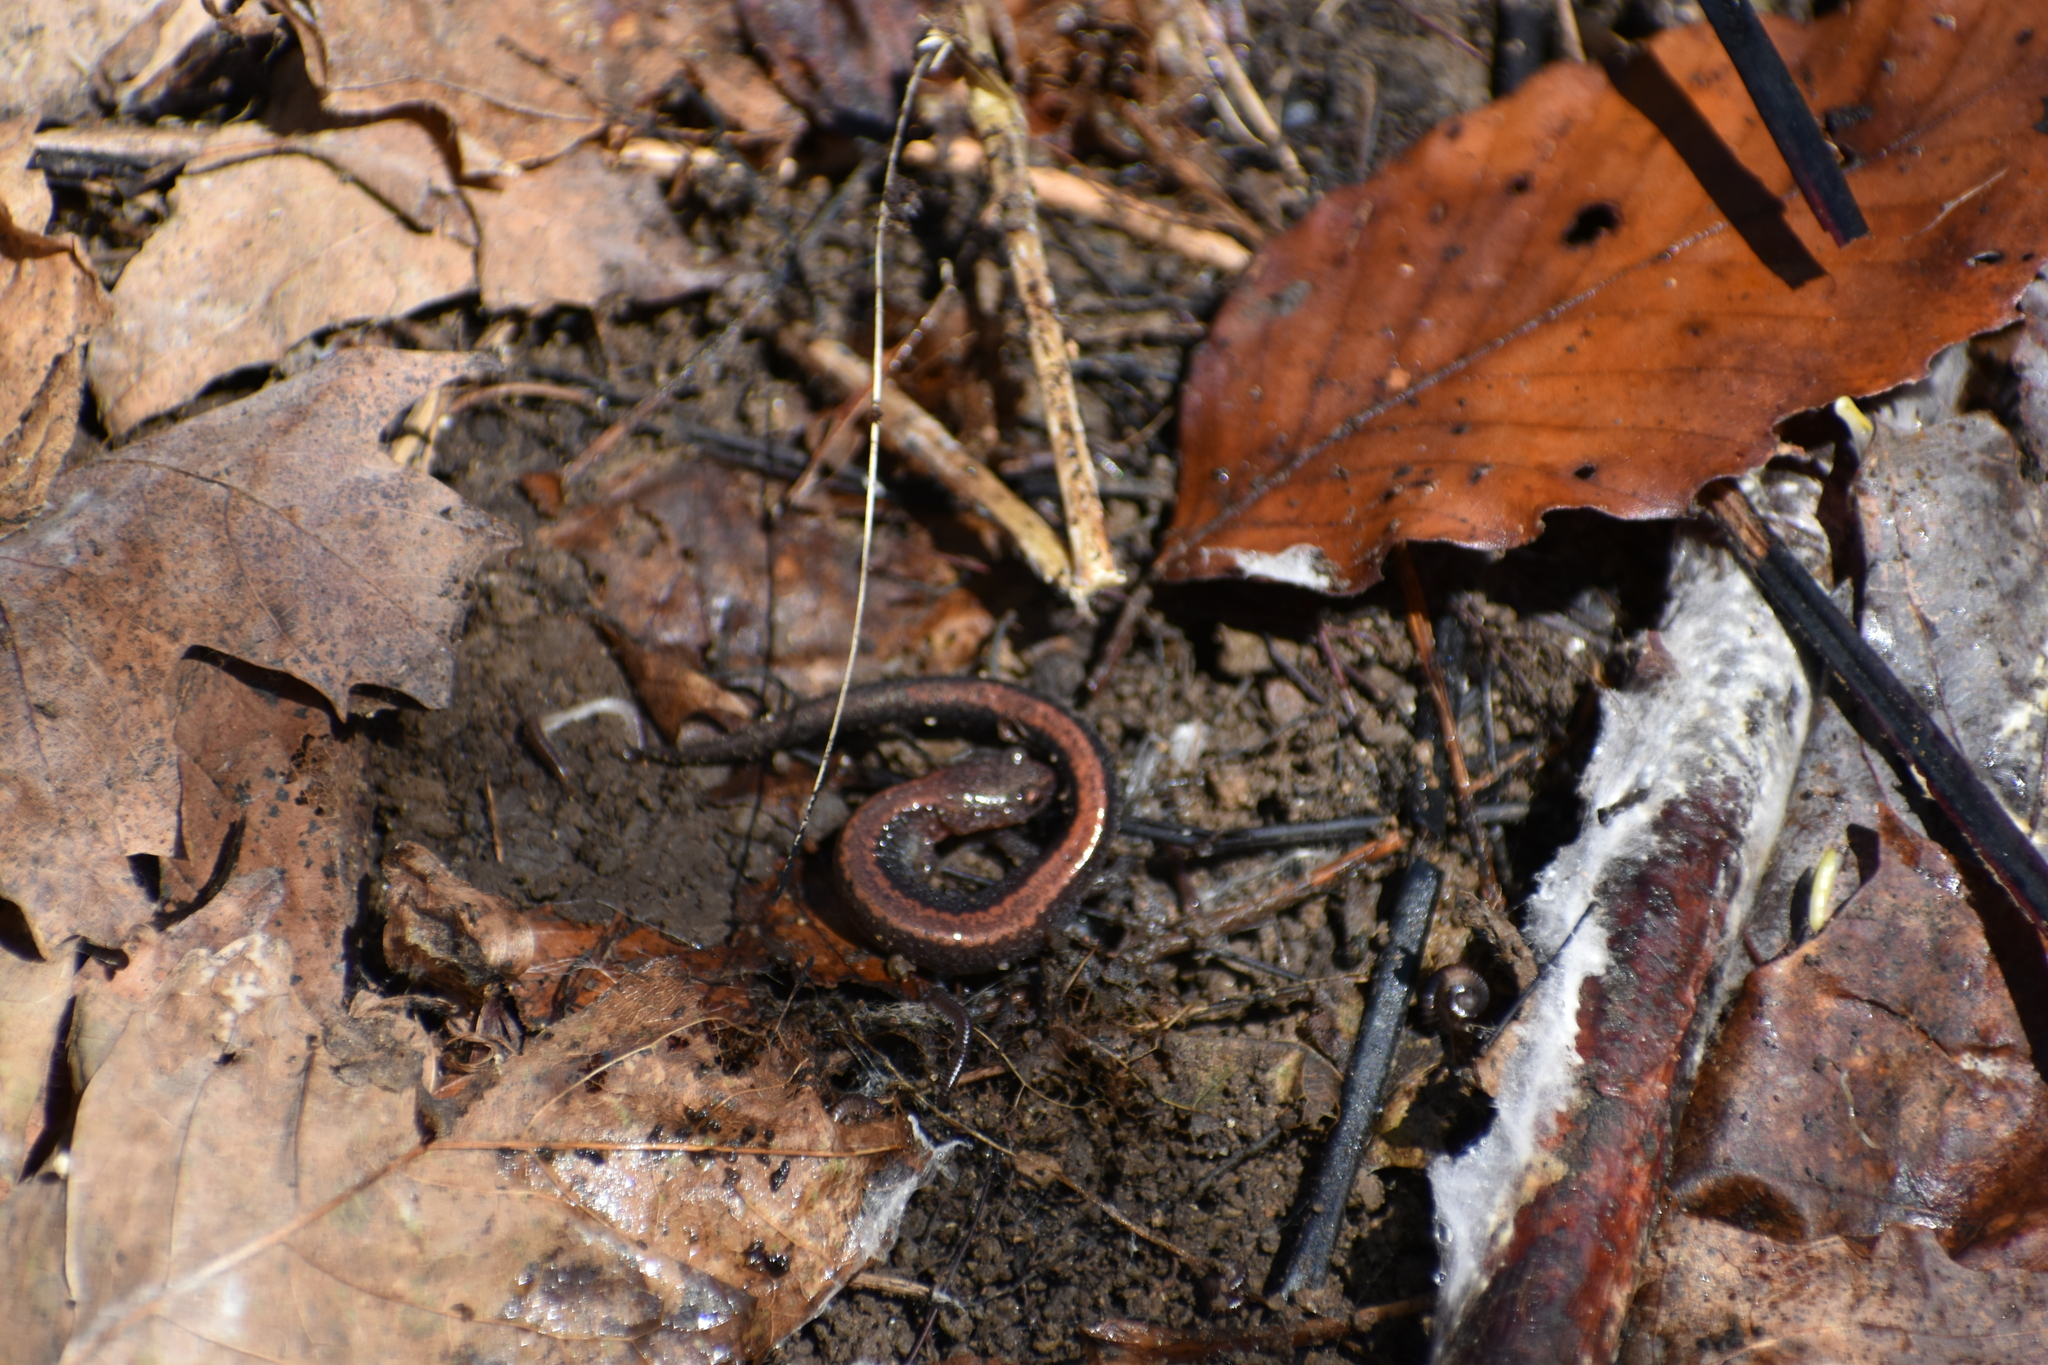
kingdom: Animalia
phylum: Chordata
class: Amphibia
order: Caudata
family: Plethodontidae
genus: Plethodon
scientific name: Plethodon cinereus
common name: Redback salamander
